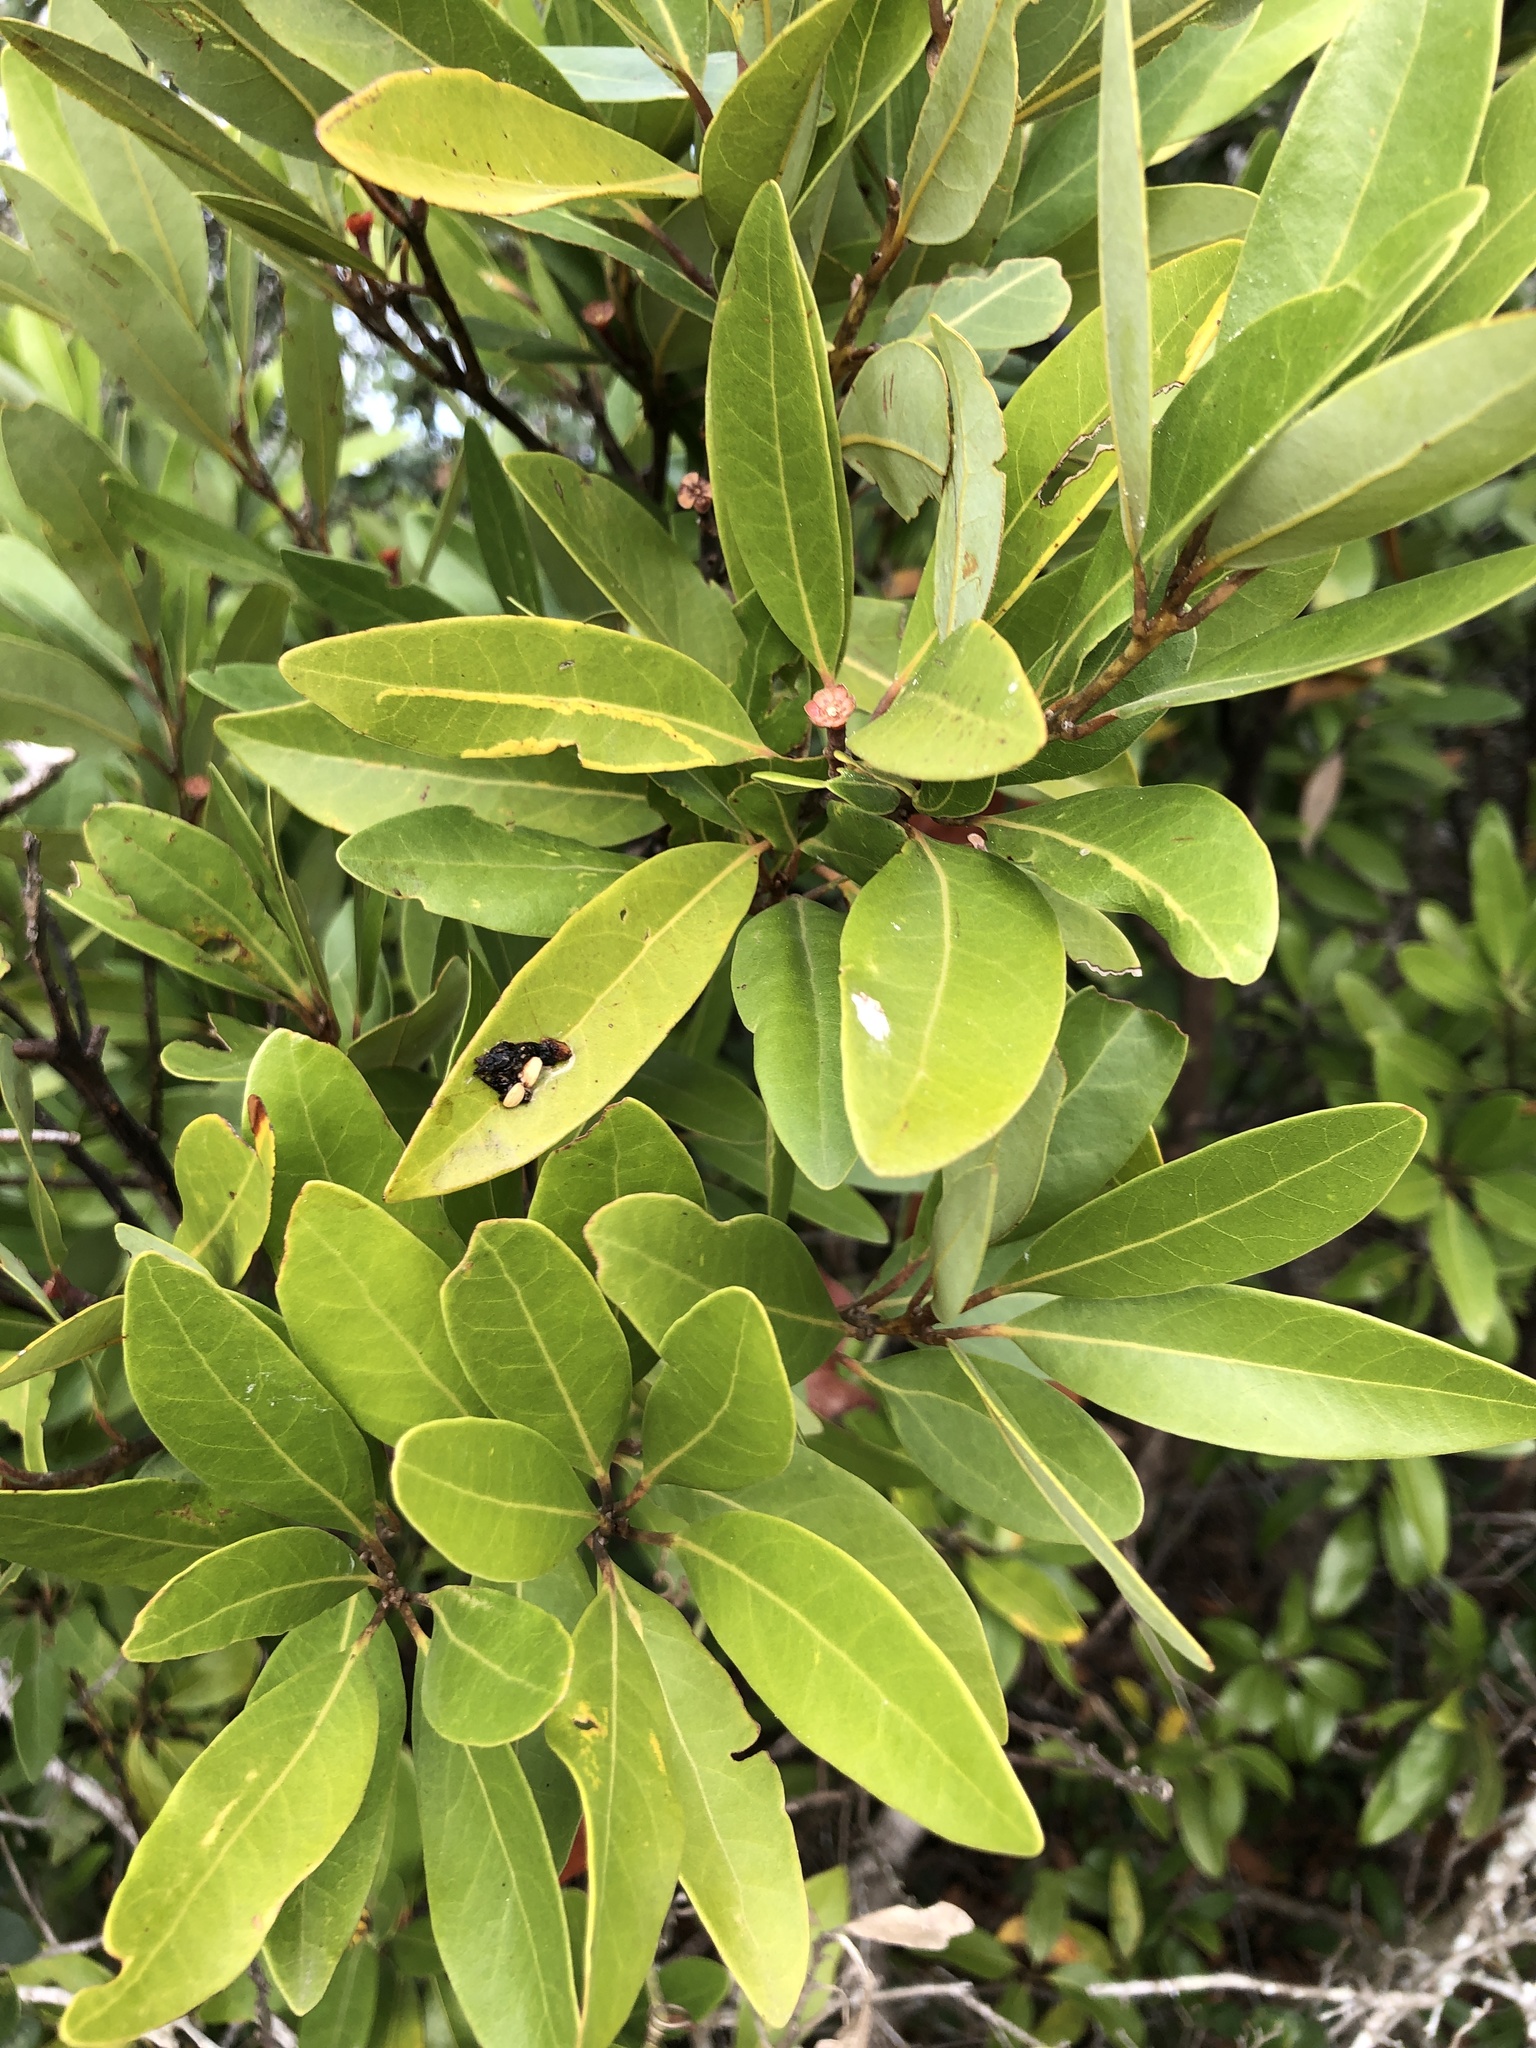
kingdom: Plantae
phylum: Tracheophyta
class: Magnoliopsida
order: Laurales
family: Lauraceae
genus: Persea
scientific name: Persea borbonia
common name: Redbay
